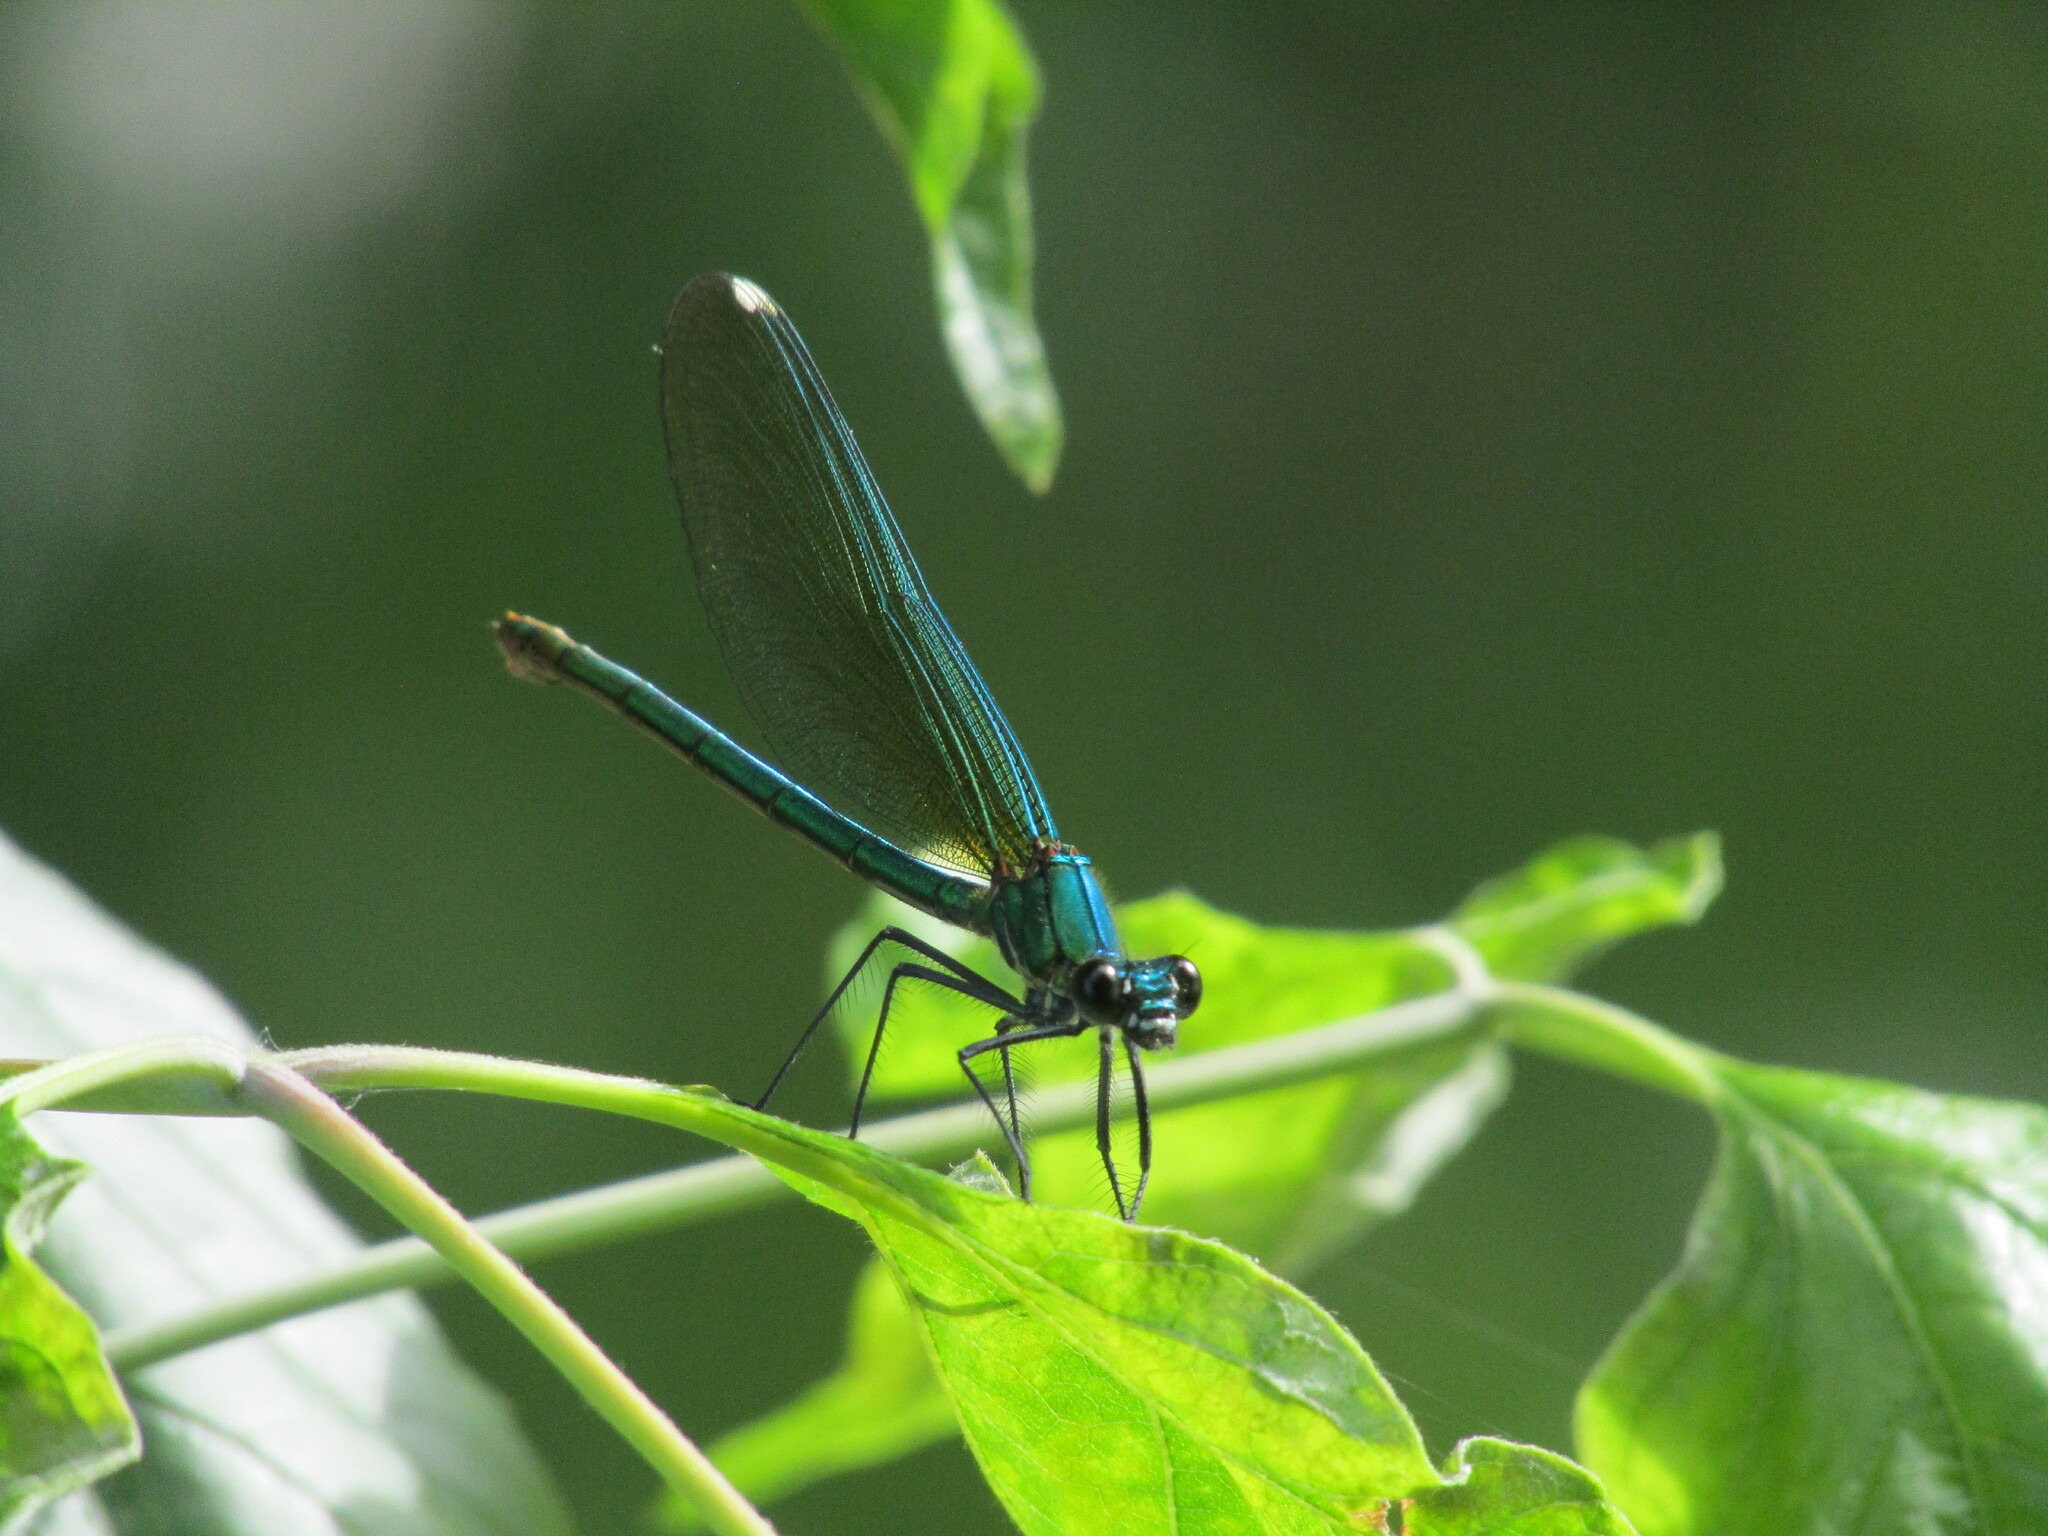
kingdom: Animalia
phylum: Arthropoda
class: Insecta
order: Odonata
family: Calopterygidae
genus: Calopteryx
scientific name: Calopteryx splendens
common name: Banded demoiselle
